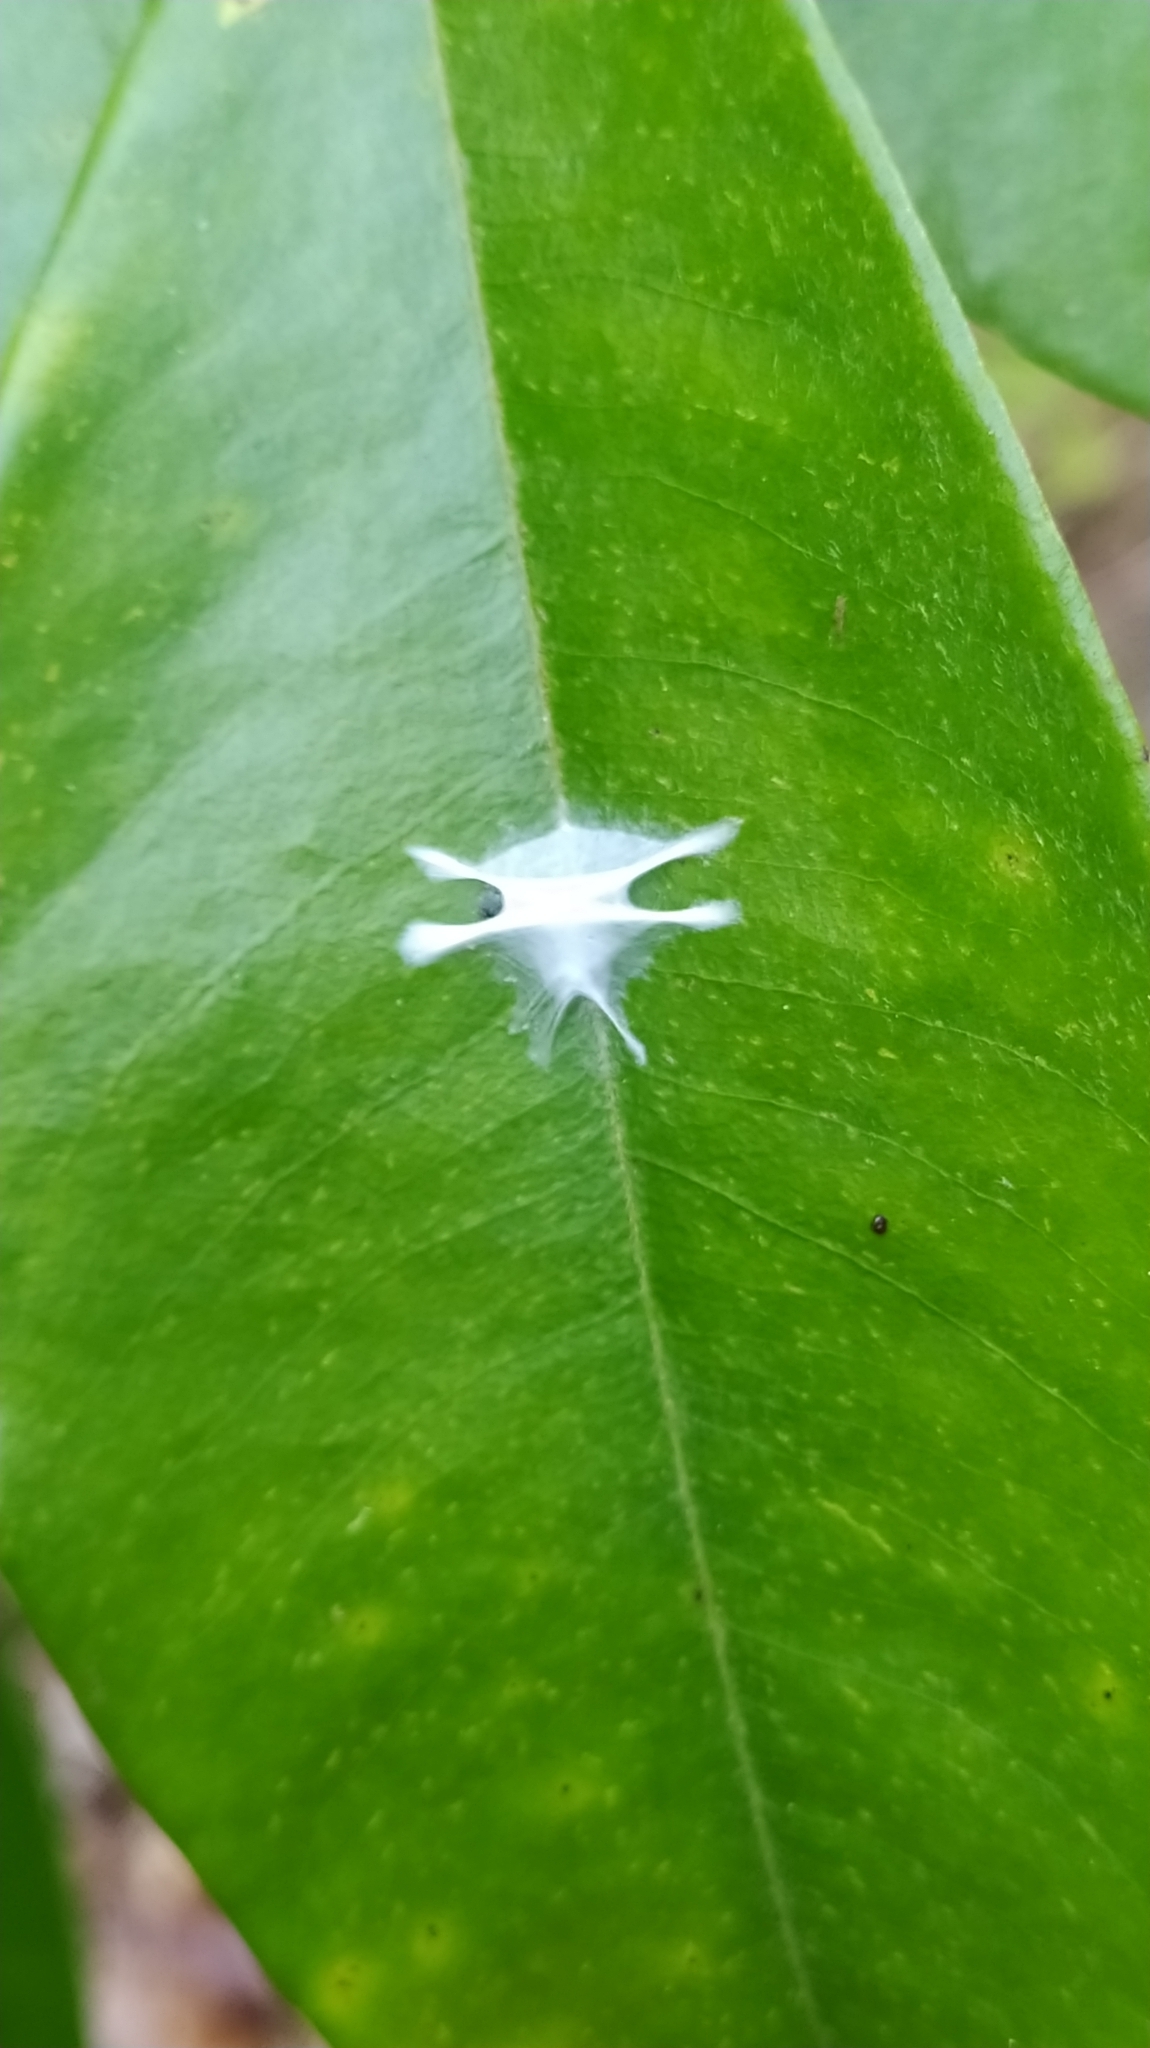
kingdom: Animalia
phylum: Arthropoda
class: Arachnida
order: Araneae
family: Salticidae
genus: Fritzia
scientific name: Fritzia muelleri
